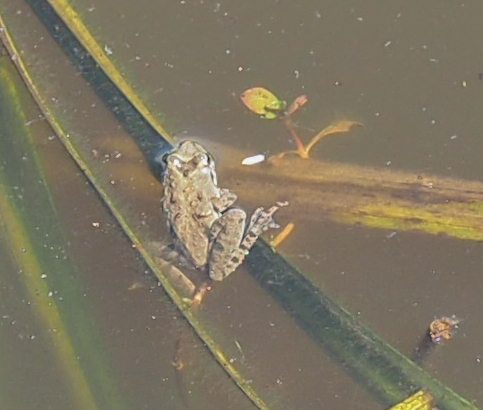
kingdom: Animalia
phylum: Chordata
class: Amphibia
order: Anura
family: Hylidae
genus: Acris
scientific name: Acris crepitans
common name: Northern cricket frog
